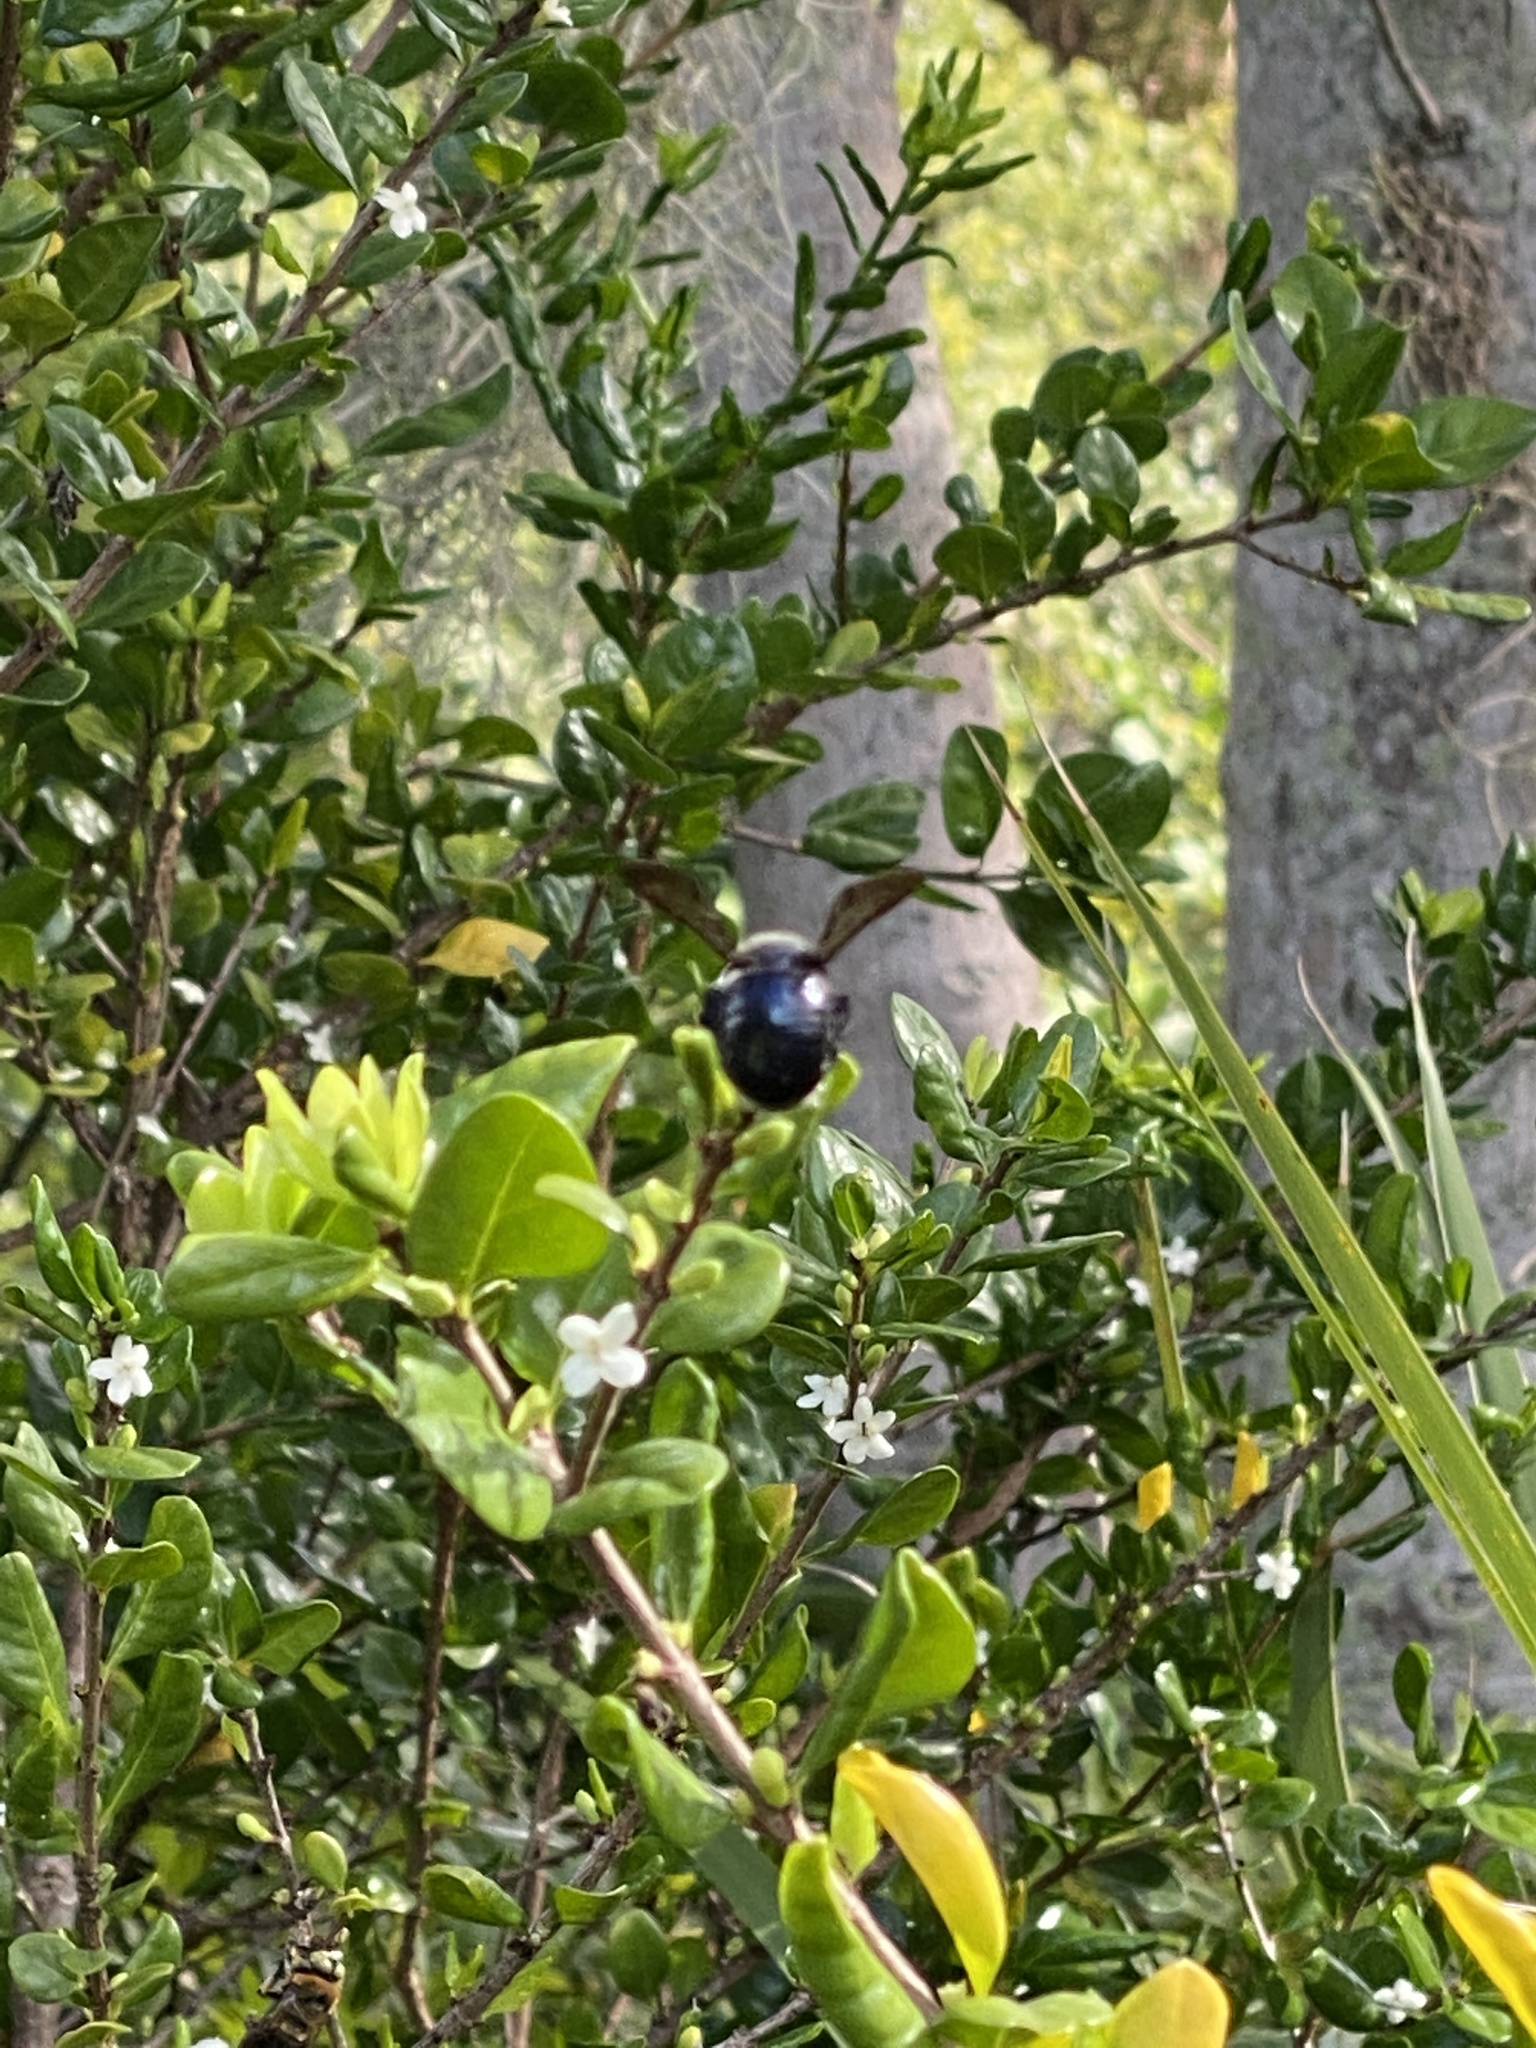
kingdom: Animalia
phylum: Arthropoda
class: Insecta
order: Hymenoptera
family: Apidae
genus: Xylocopa
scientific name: Xylocopa micans
